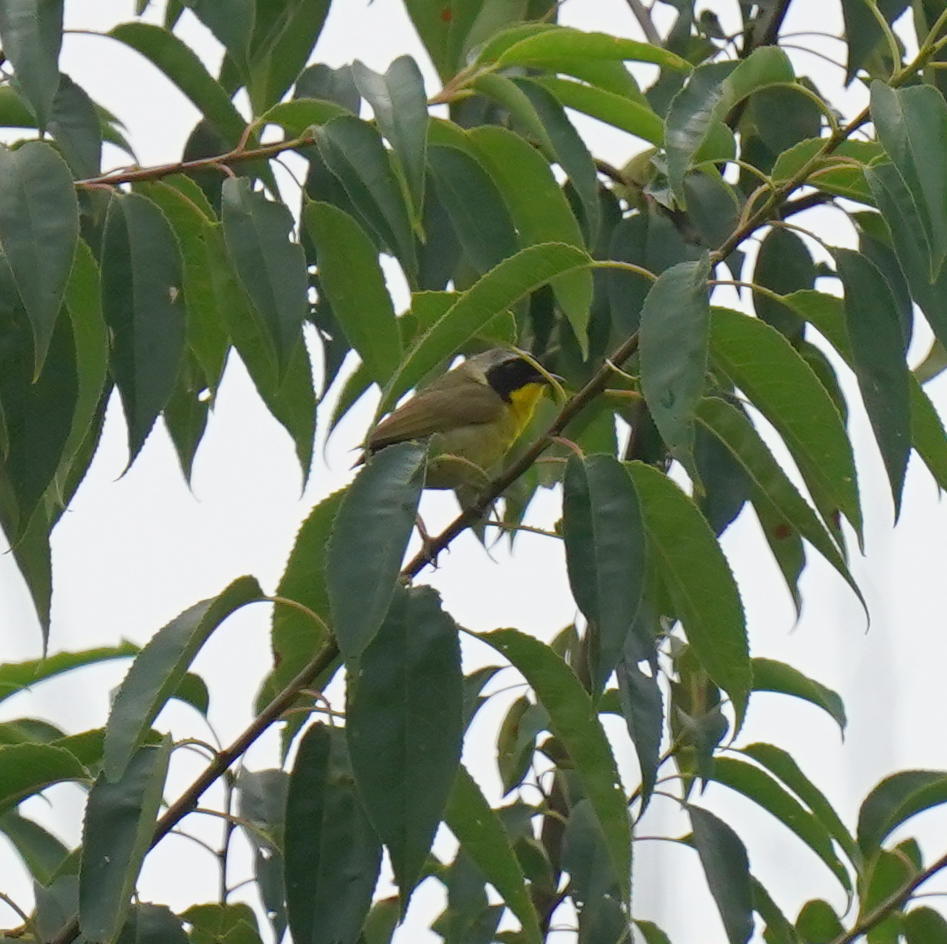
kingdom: Animalia
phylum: Chordata
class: Aves
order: Passeriformes
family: Parulidae
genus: Geothlypis
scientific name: Geothlypis trichas
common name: Common yellowthroat
